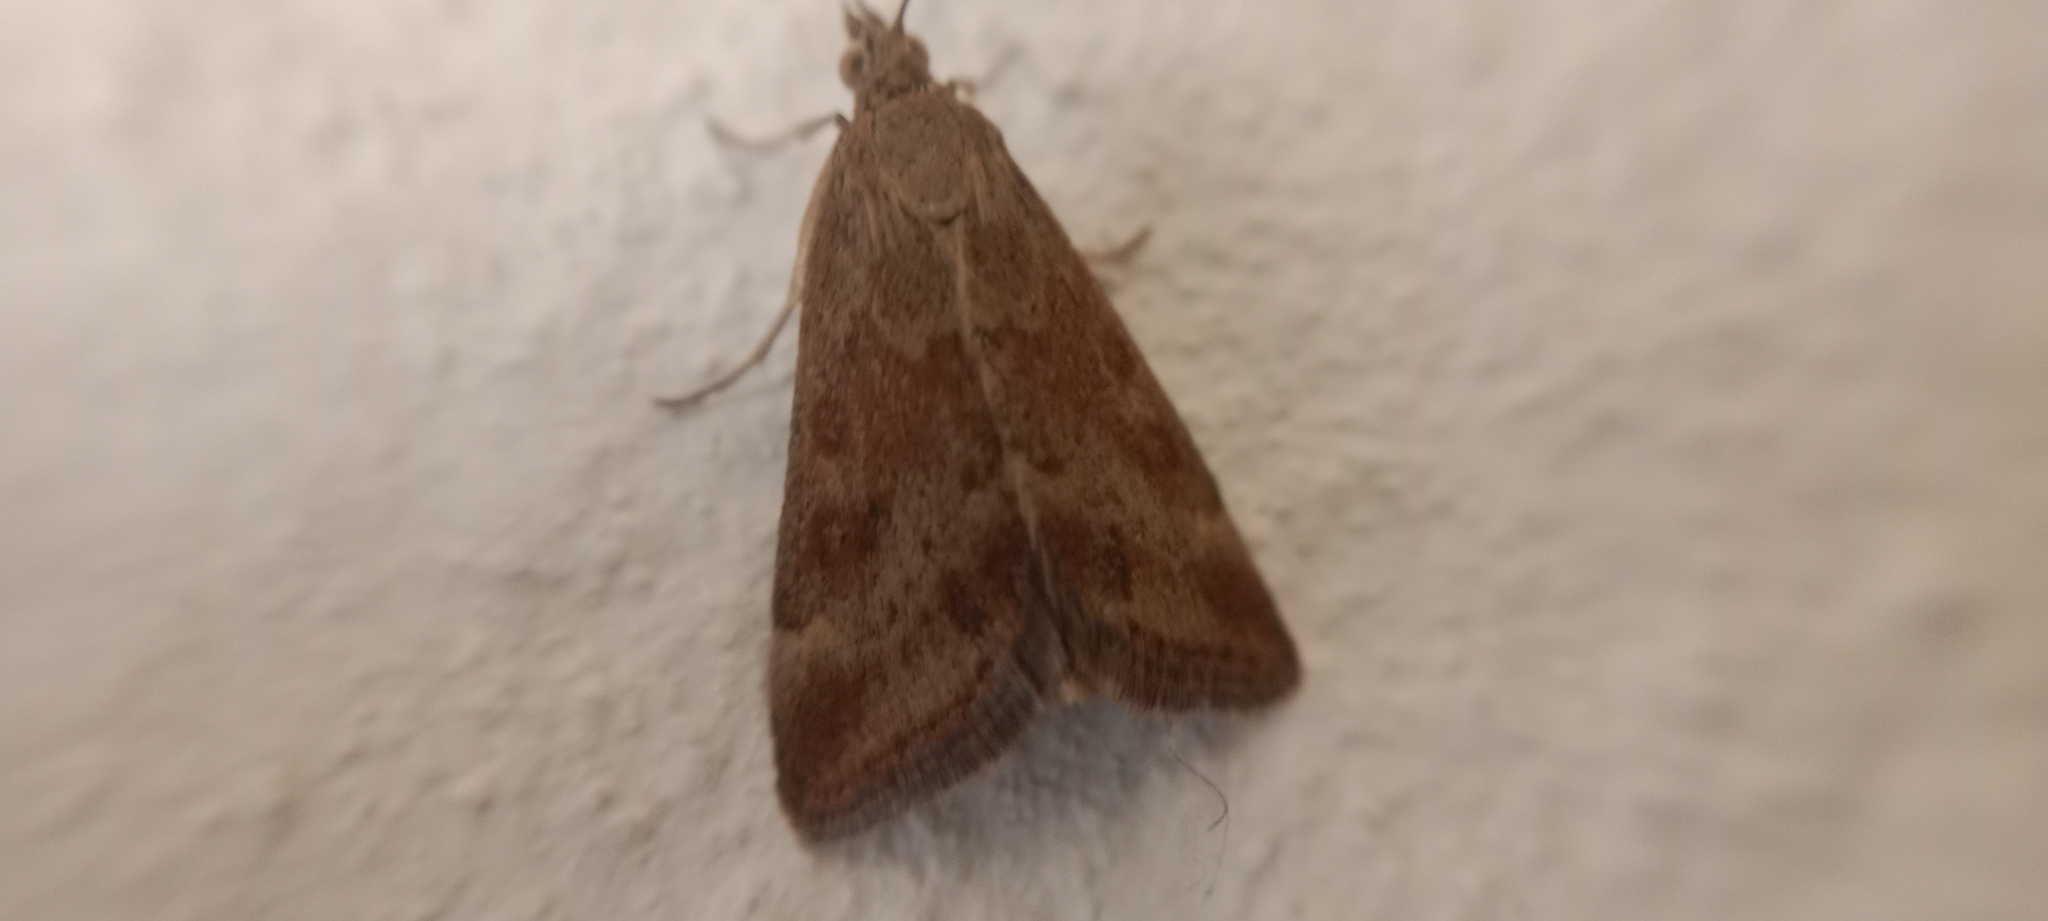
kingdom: Animalia
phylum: Arthropoda
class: Insecta
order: Lepidoptera
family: Crambidae
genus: Pyrausta
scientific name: Pyrausta despicata
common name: Straw-barred pearl
